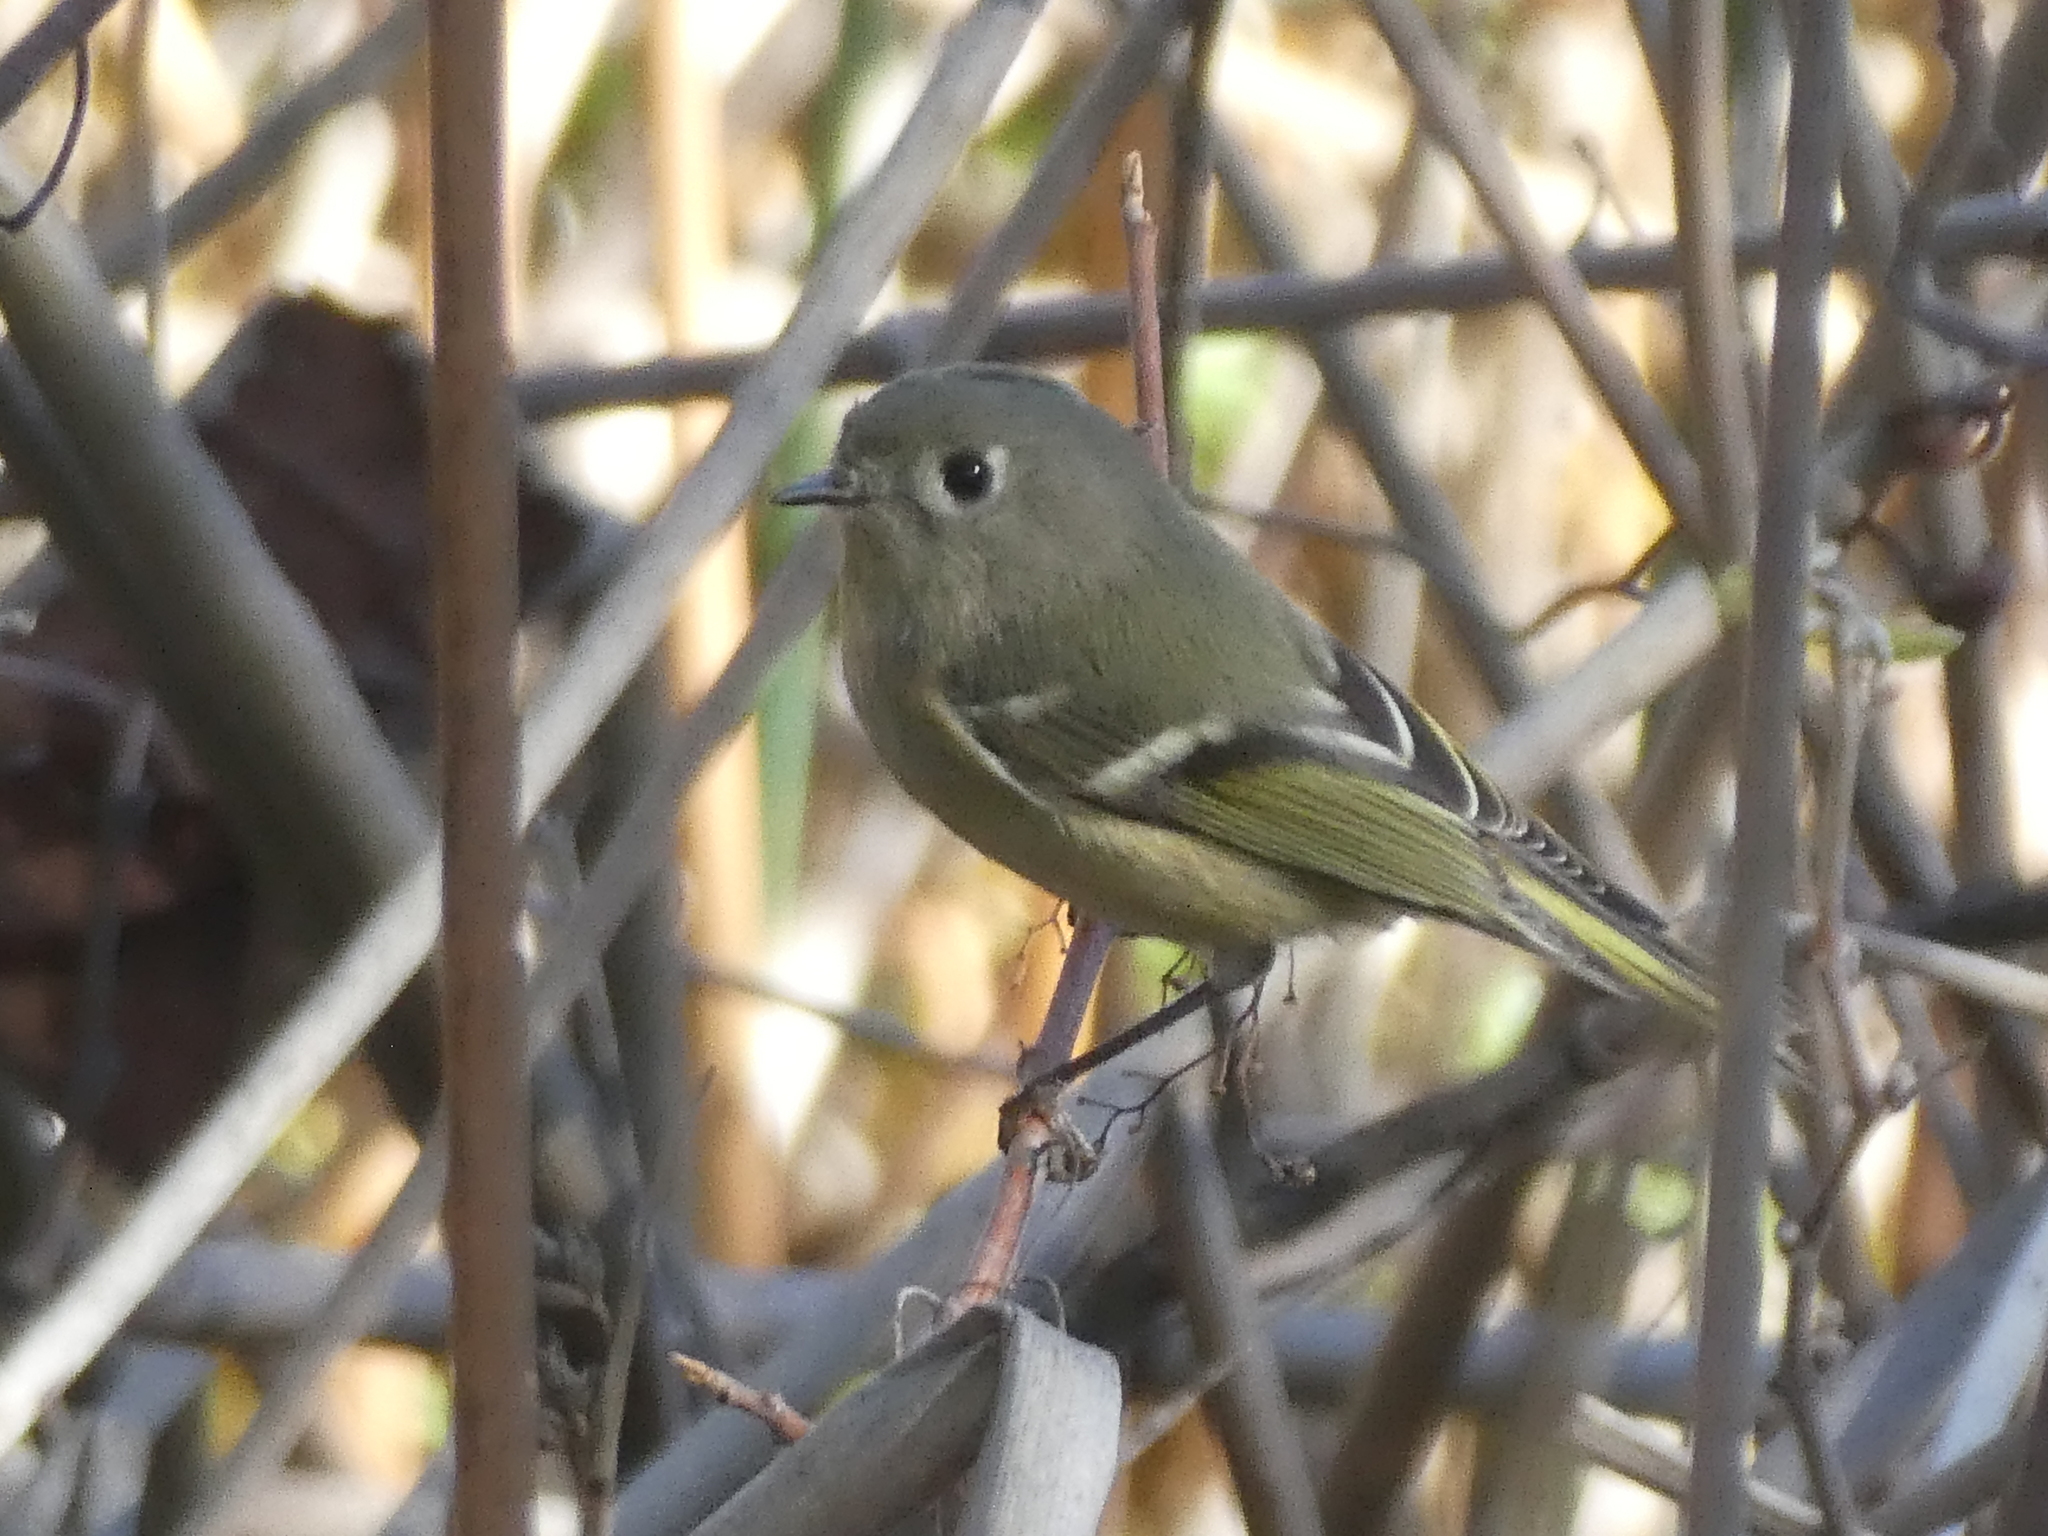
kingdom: Animalia
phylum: Chordata
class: Aves
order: Passeriformes
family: Regulidae
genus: Regulus
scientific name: Regulus calendula
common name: Ruby-crowned kinglet
